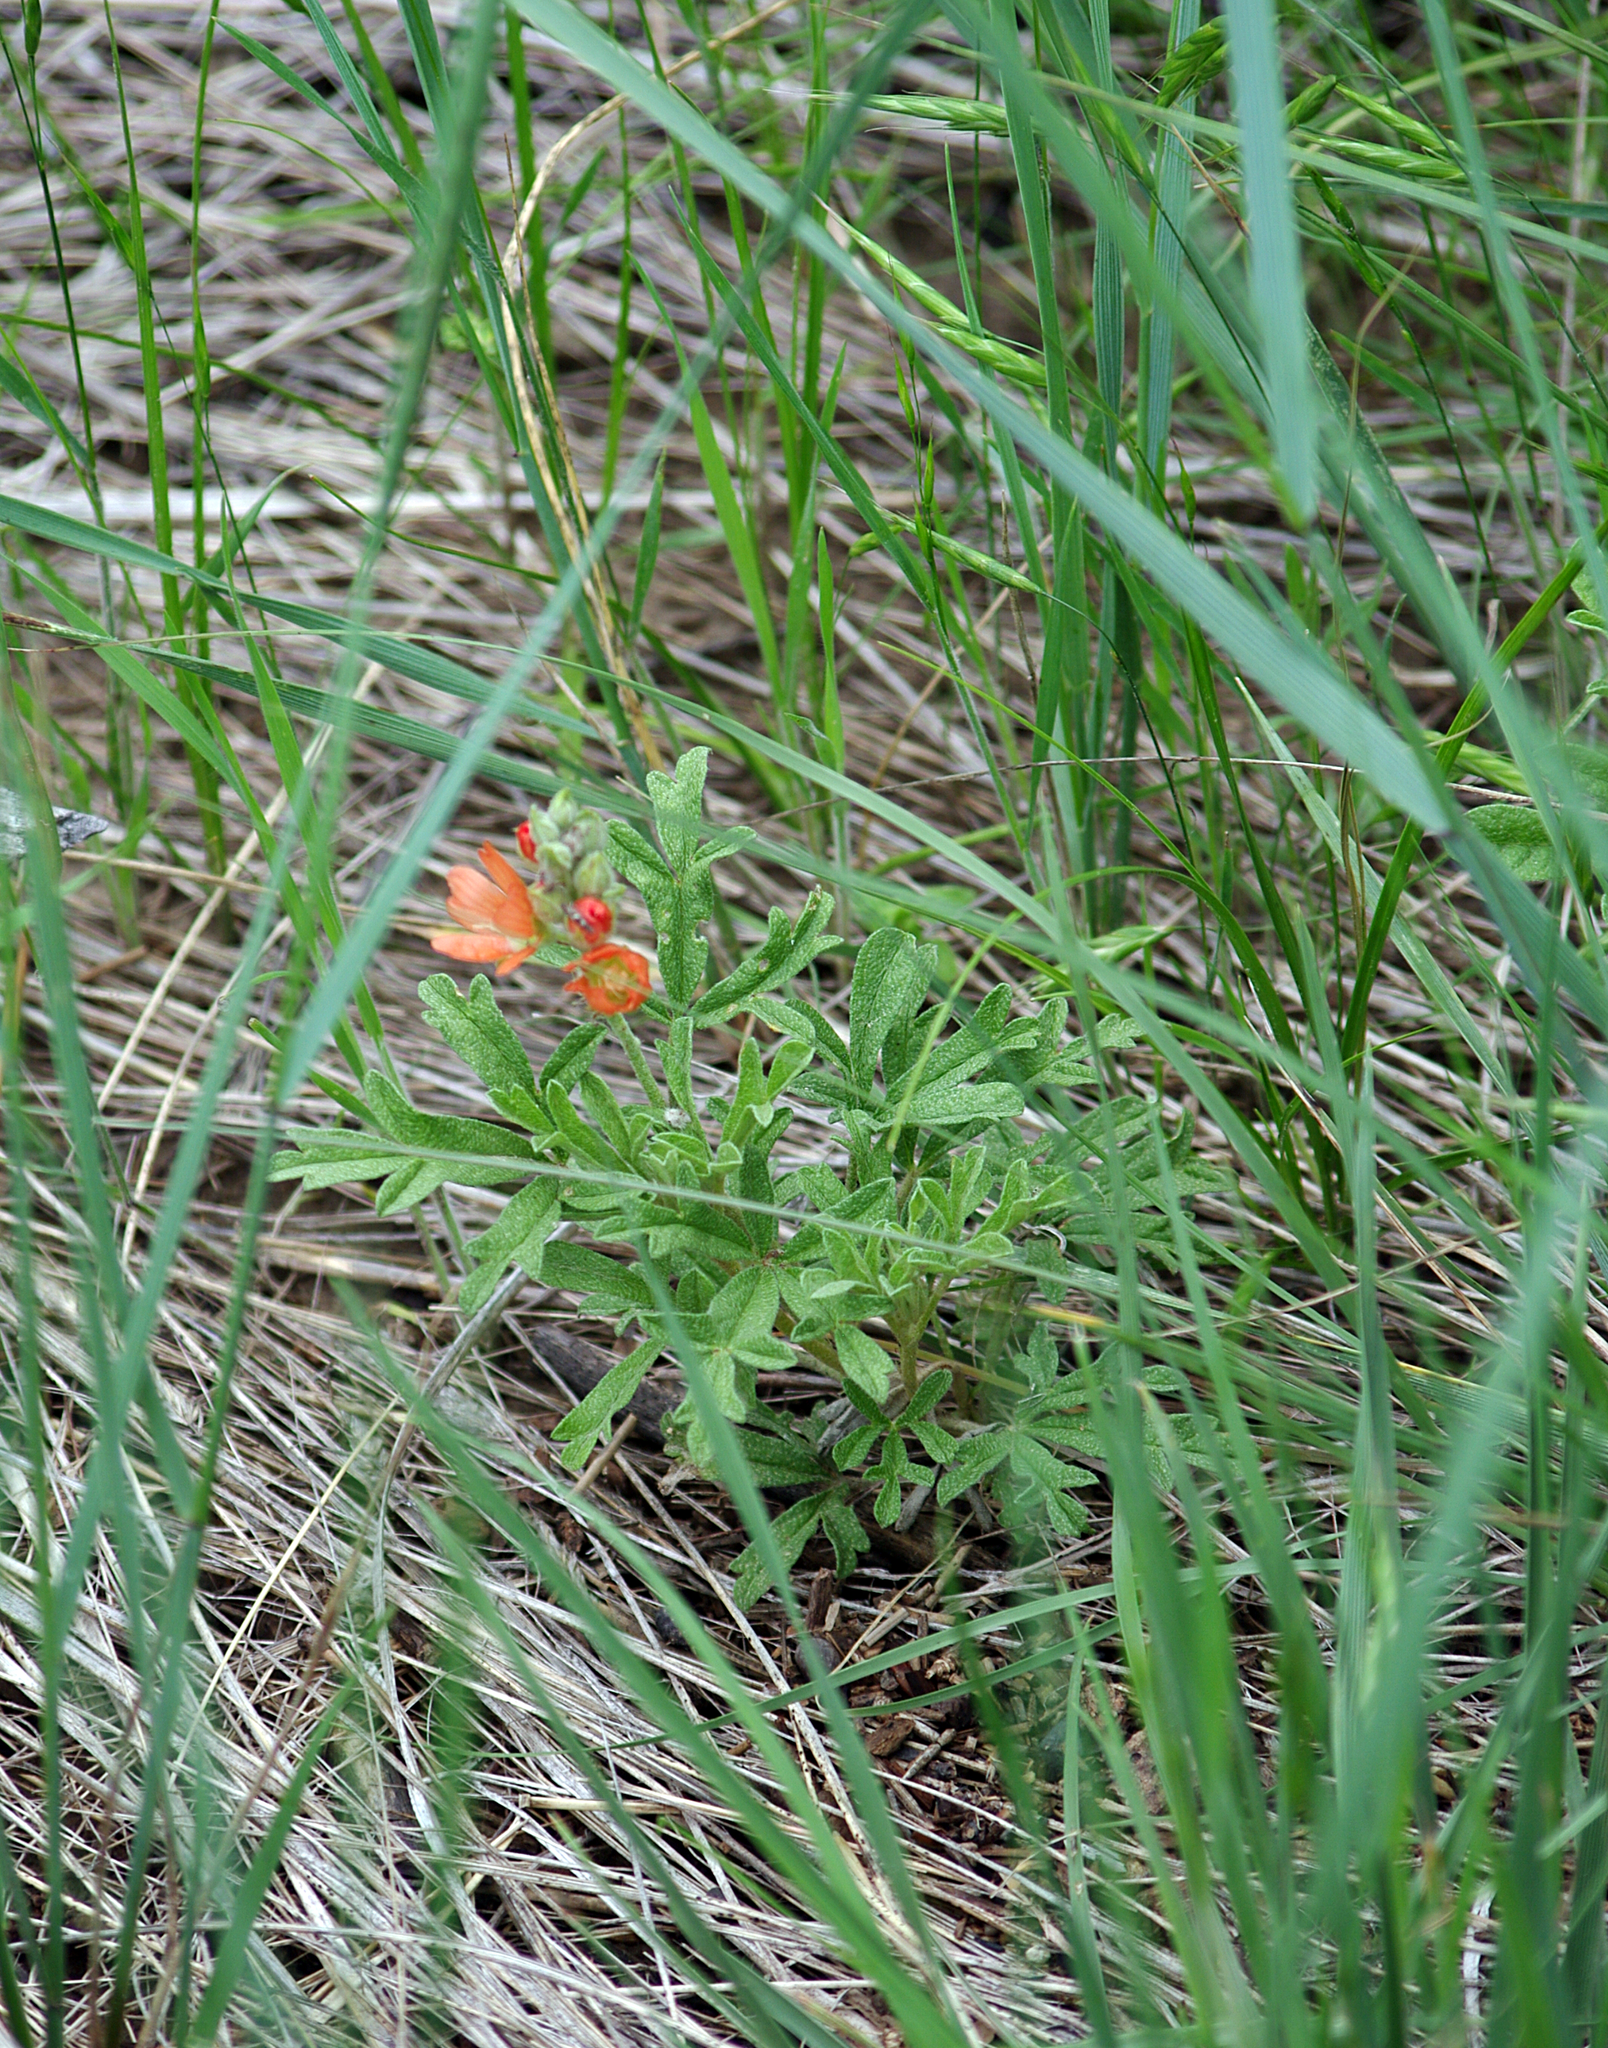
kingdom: Plantae
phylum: Tracheophyta
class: Magnoliopsida
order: Malvales
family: Malvaceae
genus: Sphaeralcea
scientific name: Sphaeralcea coccinea
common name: Moss-rose
